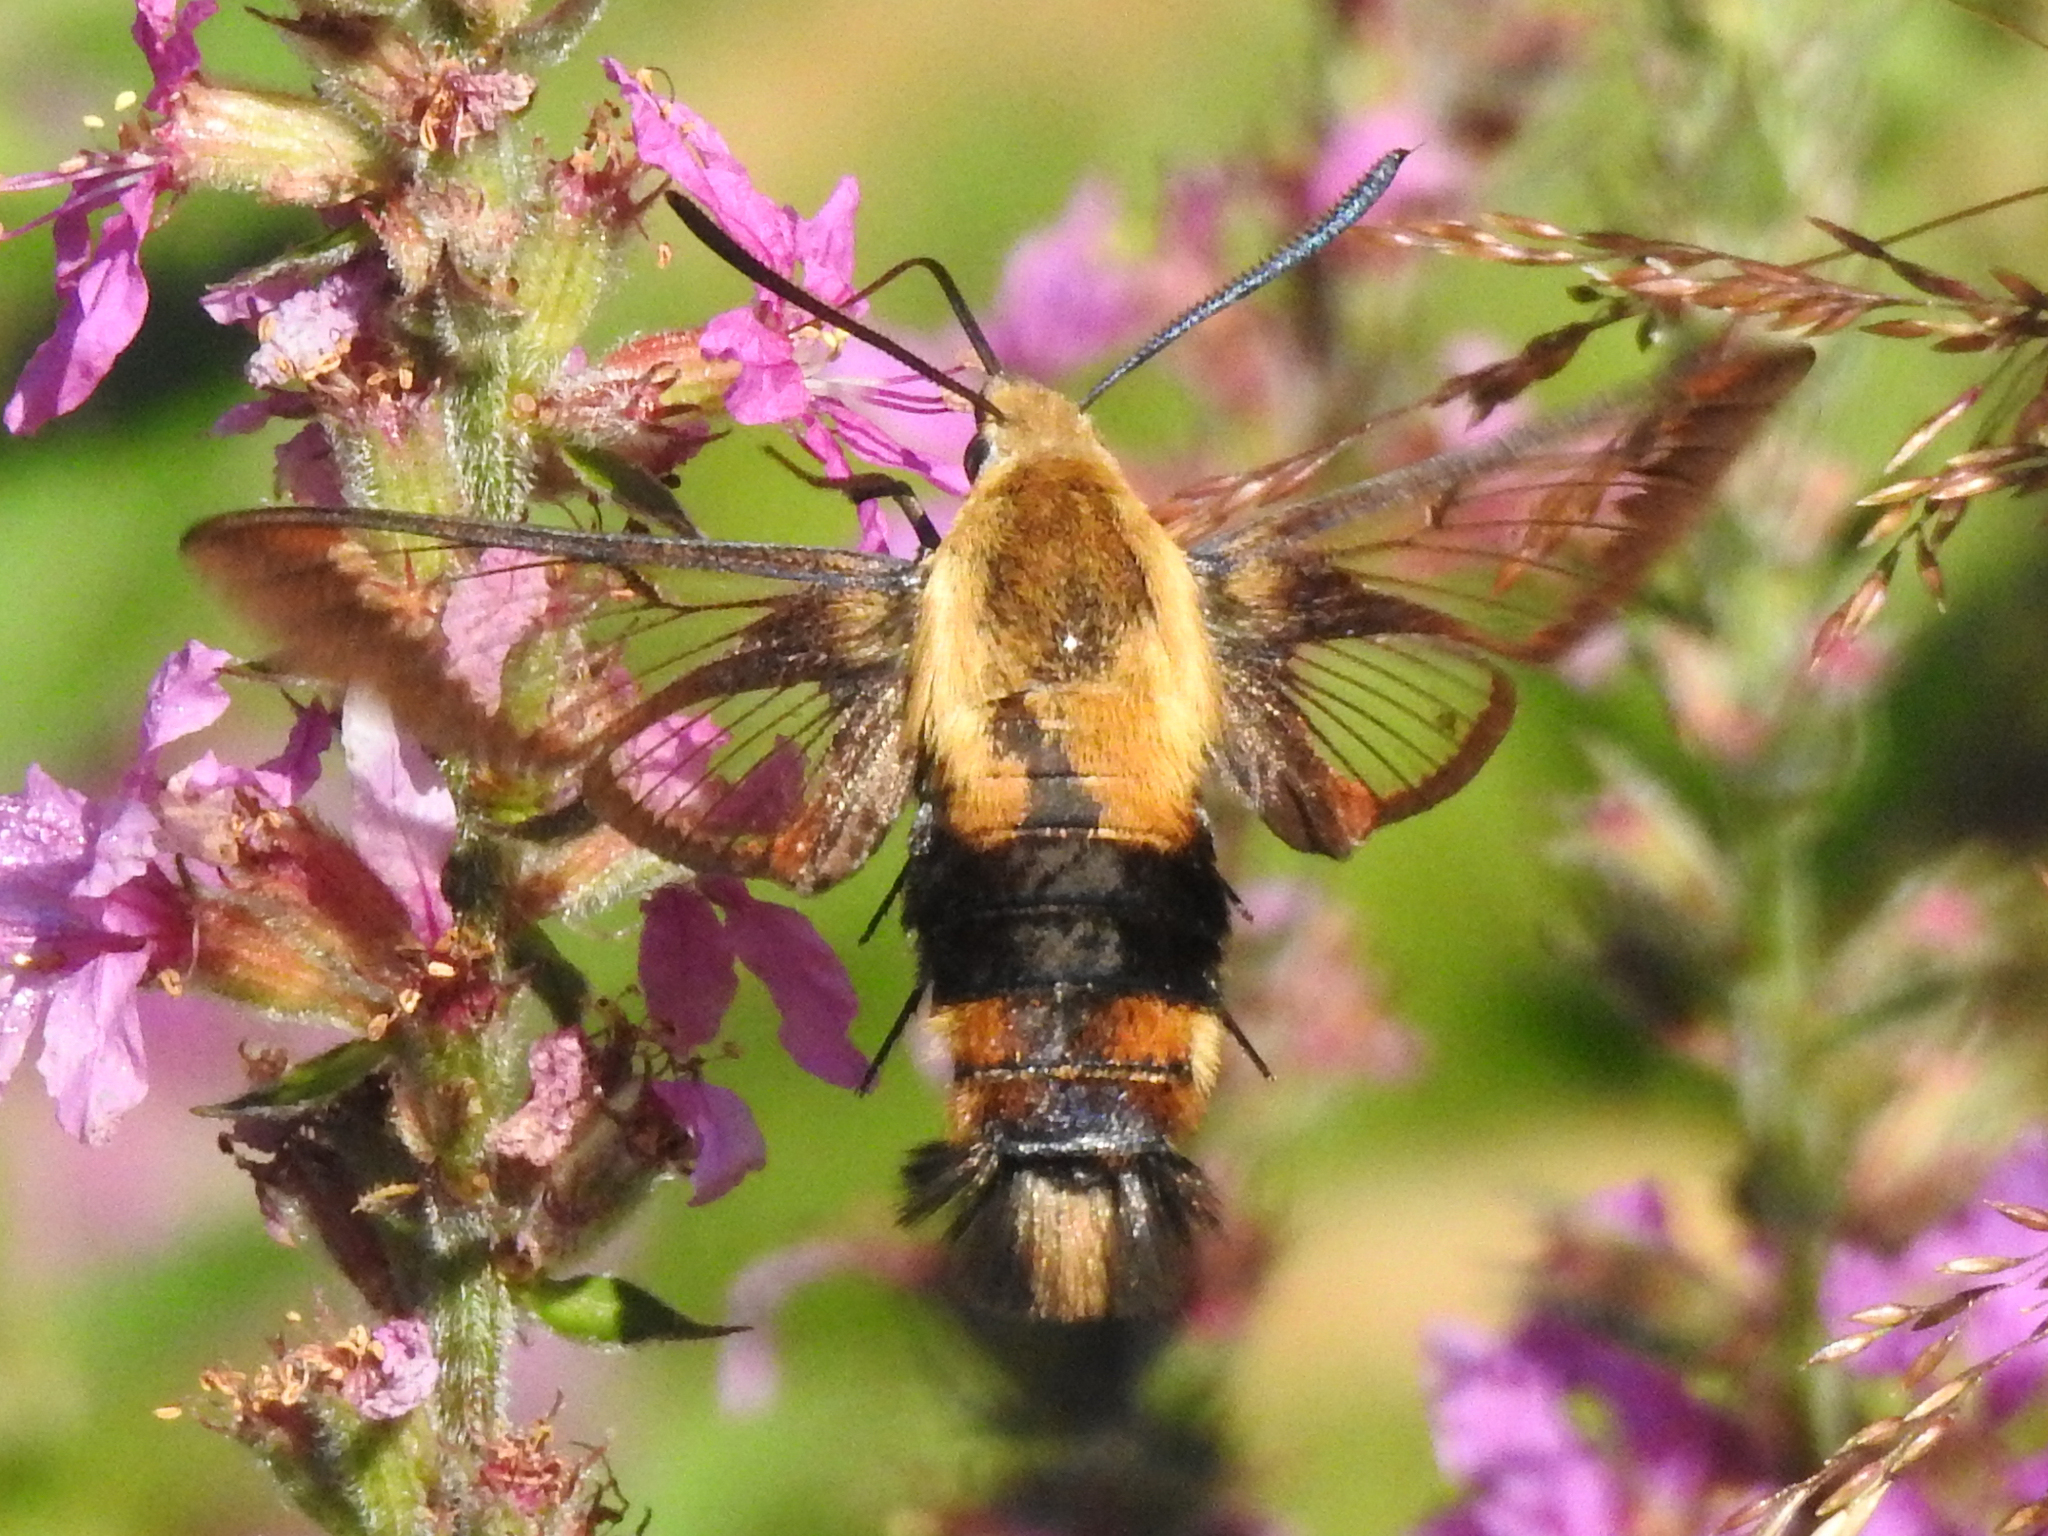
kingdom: Animalia
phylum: Arthropoda
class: Insecta
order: Lepidoptera
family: Sphingidae
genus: Hemaris
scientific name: Hemaris diffinis
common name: Bumblebee moth
